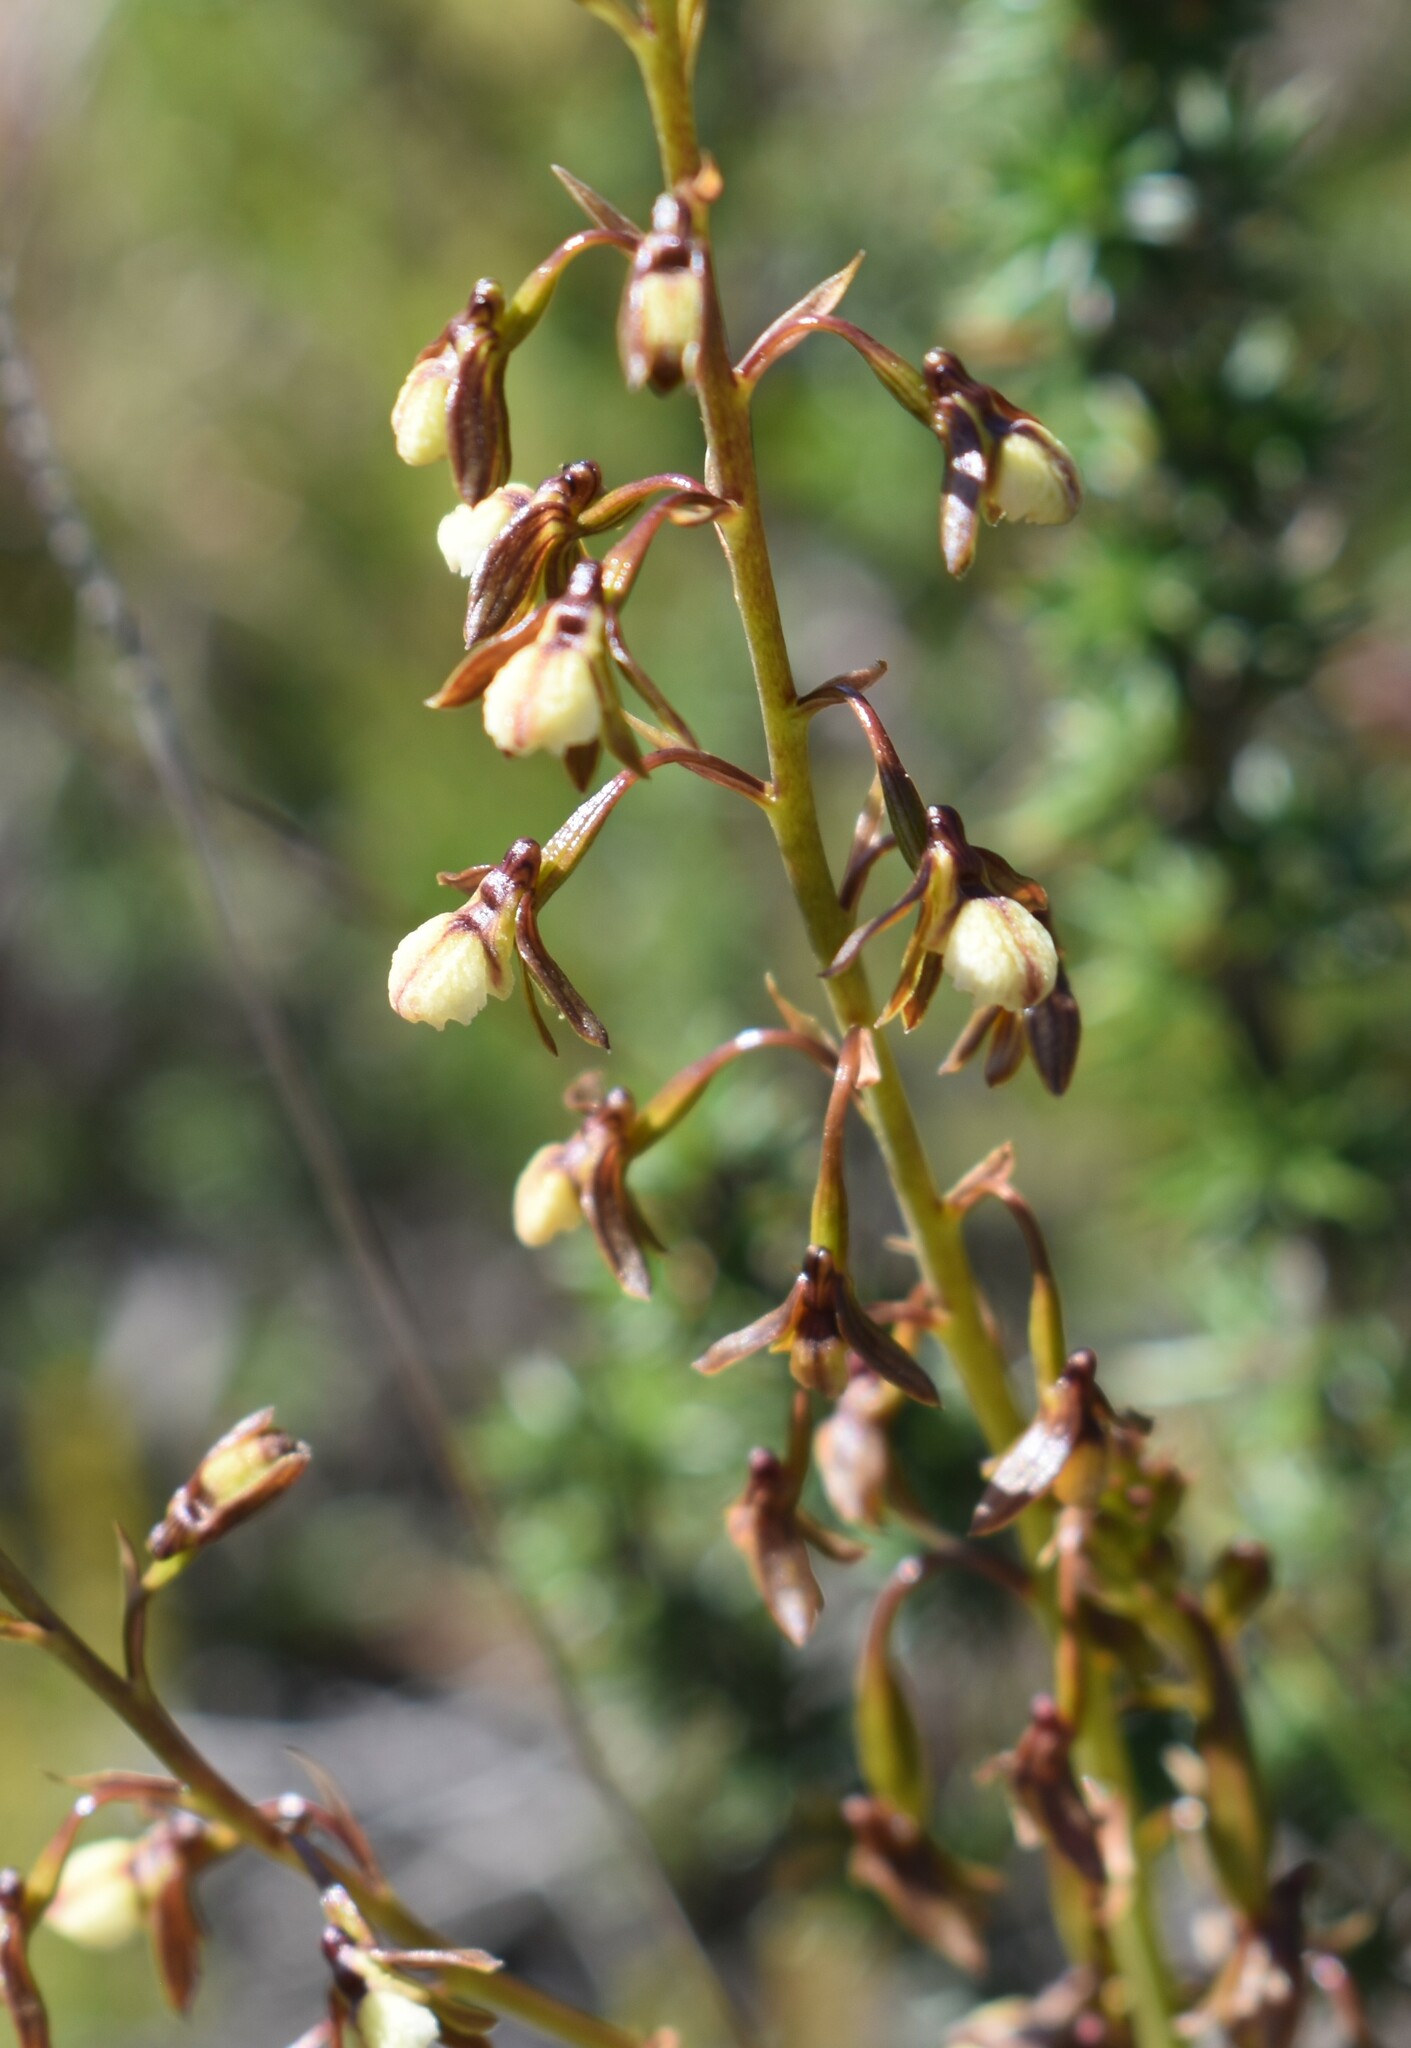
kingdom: Plantae
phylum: Tracheophyta
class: Liliopsida
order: Asparagales
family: Orchidaceae
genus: Eulophia
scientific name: Eulophia cochlearis
